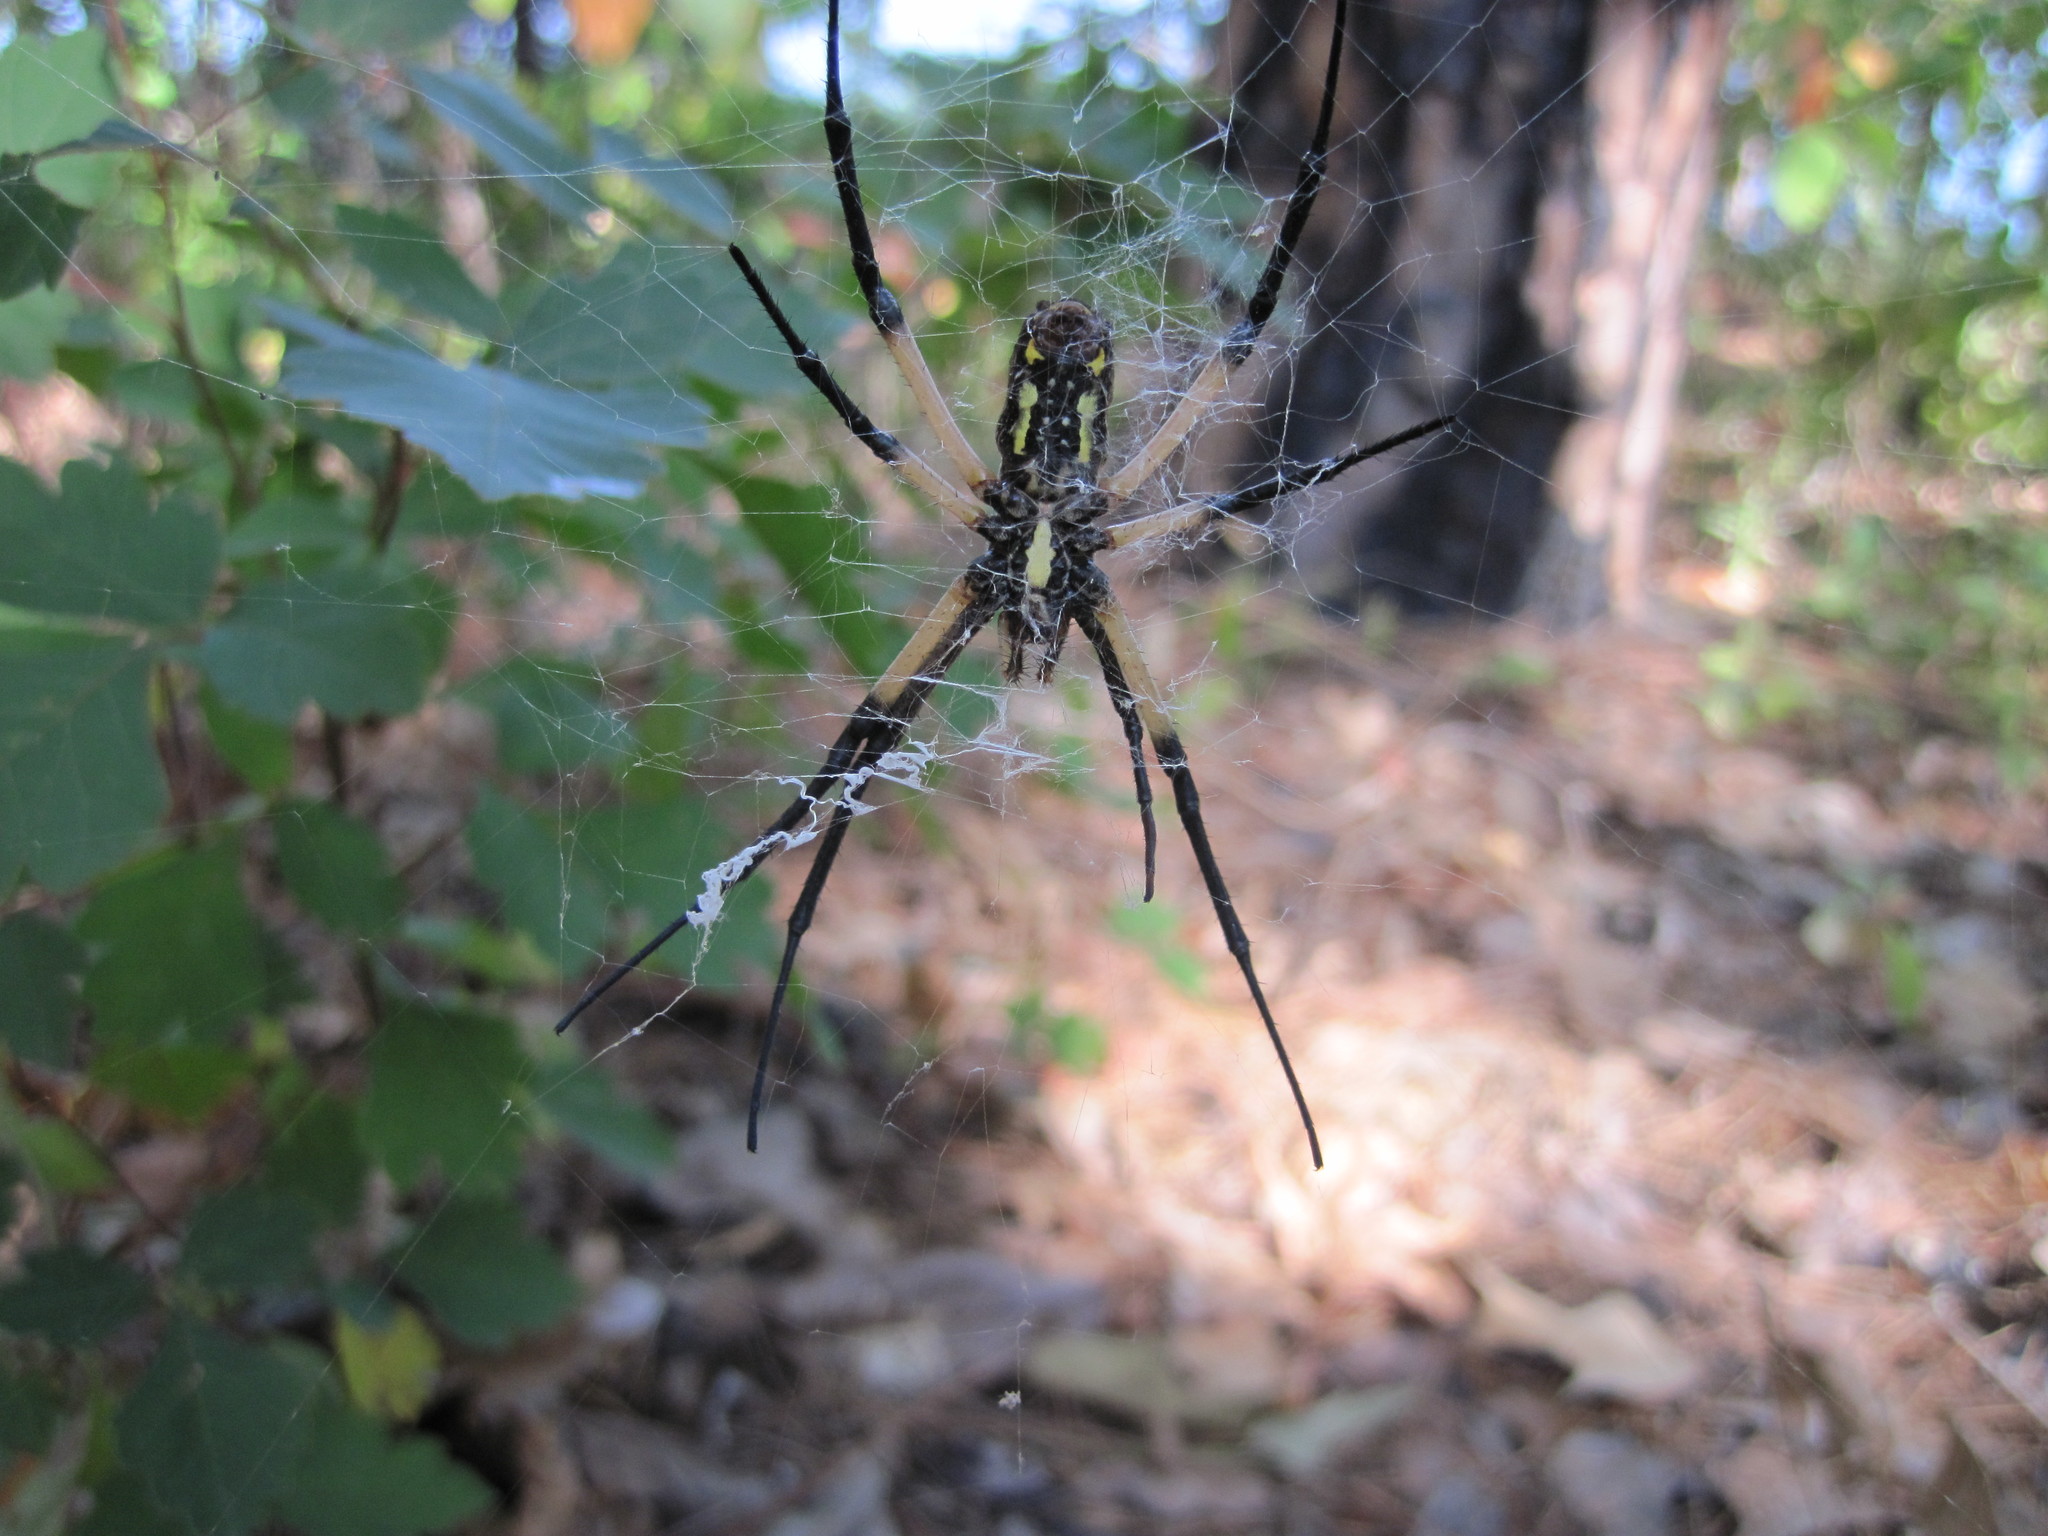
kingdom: Animalia
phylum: Arthropoda
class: Arachnida
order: Araneae
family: Araneidae
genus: Argiope
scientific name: Argiope aurantia
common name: Orb weavers
